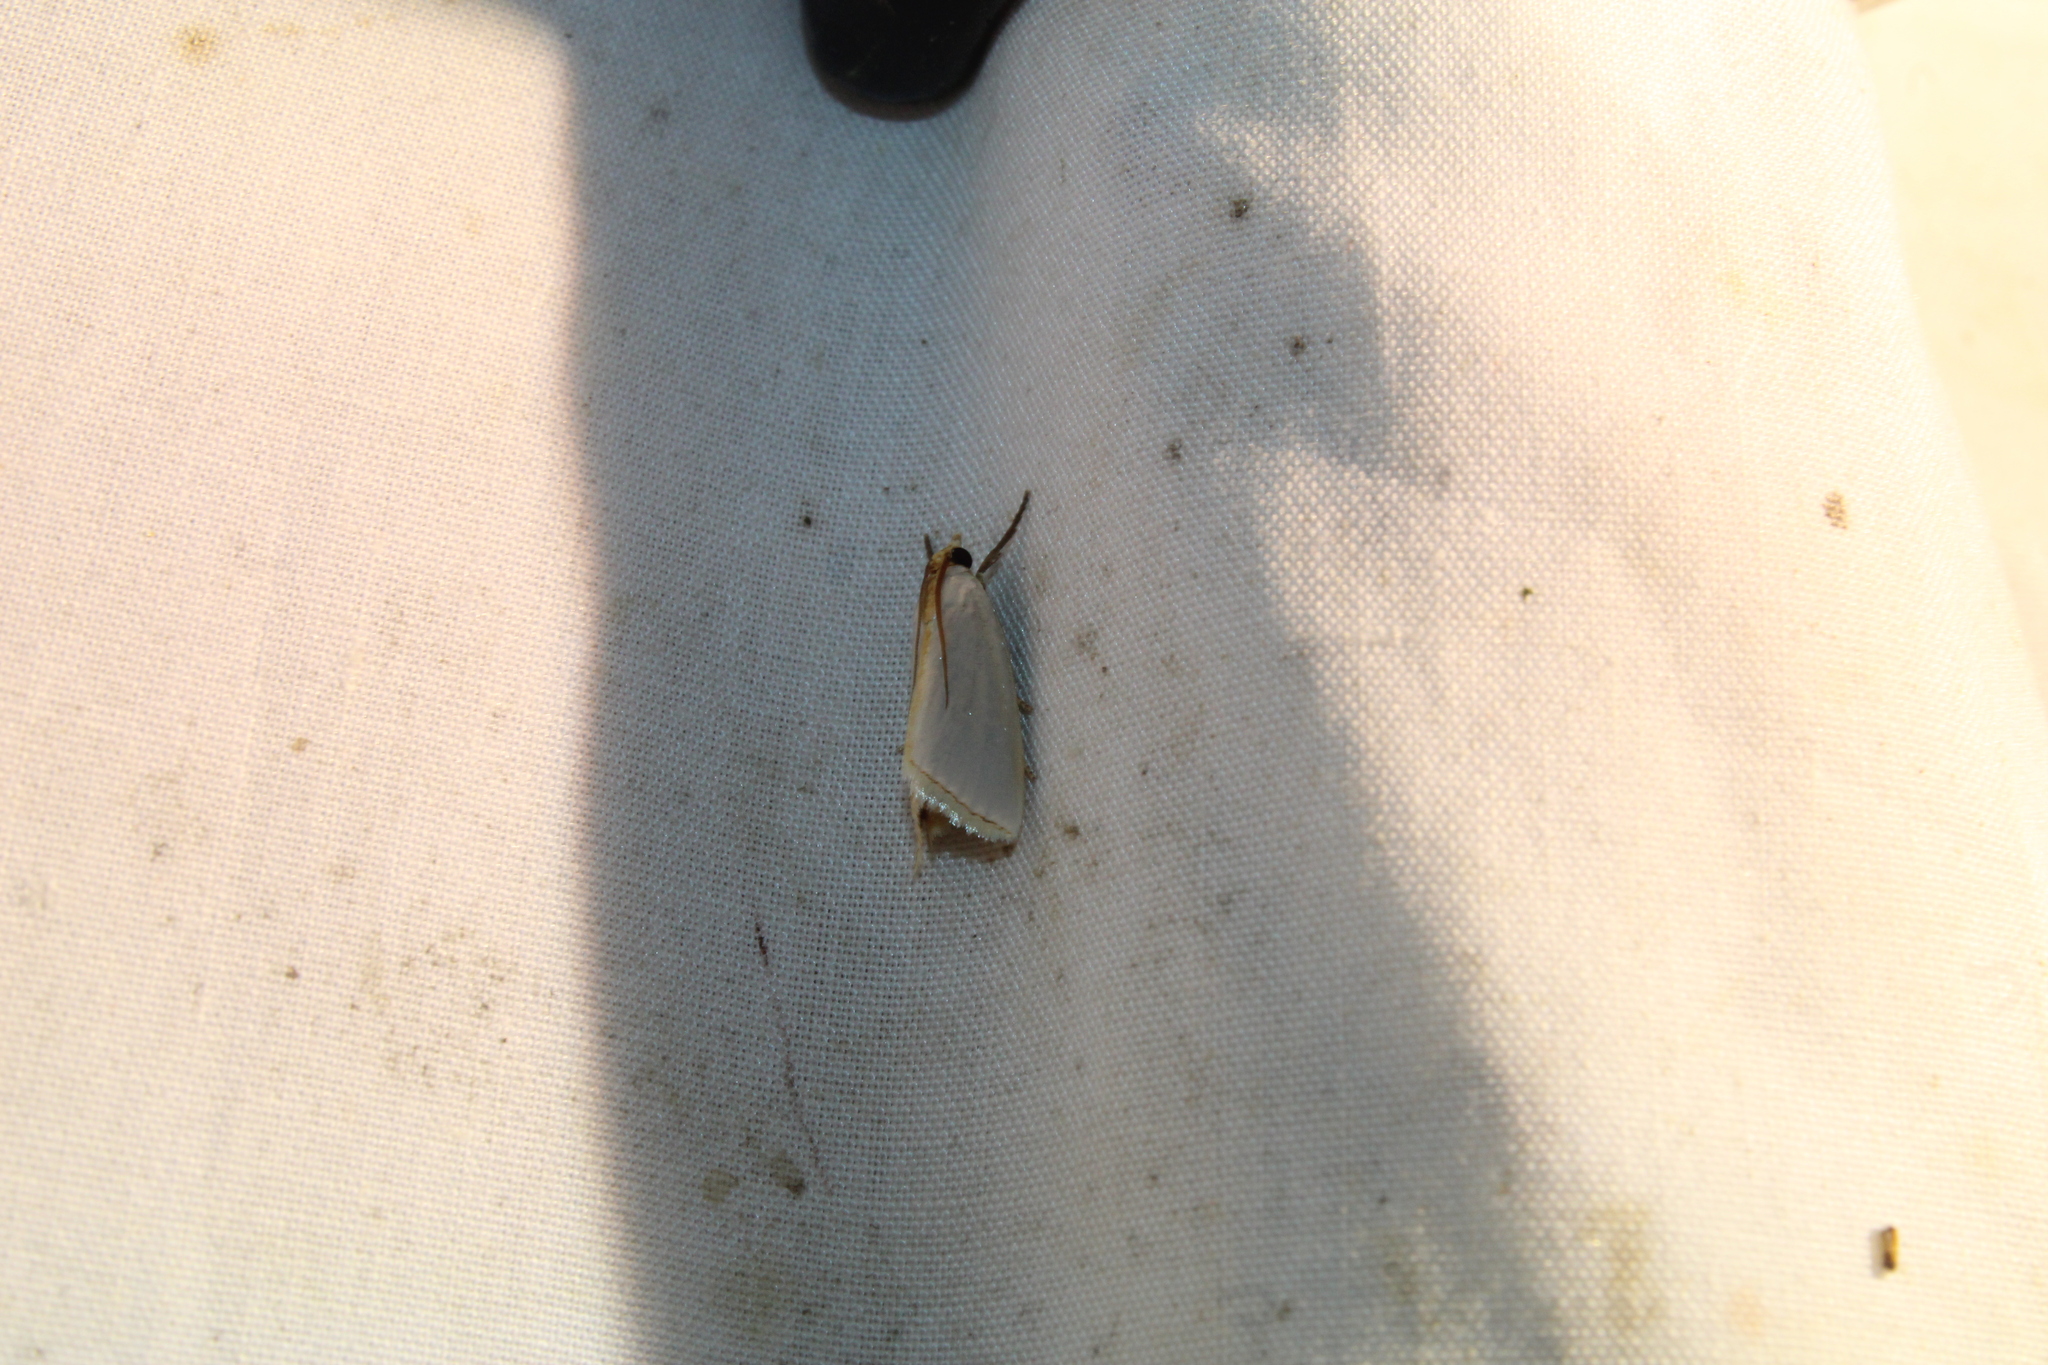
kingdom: Animalia
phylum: Arthropoda
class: Insecta
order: Lepidoptera
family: Crambidae
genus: Argyria
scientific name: Argyria nivalis
